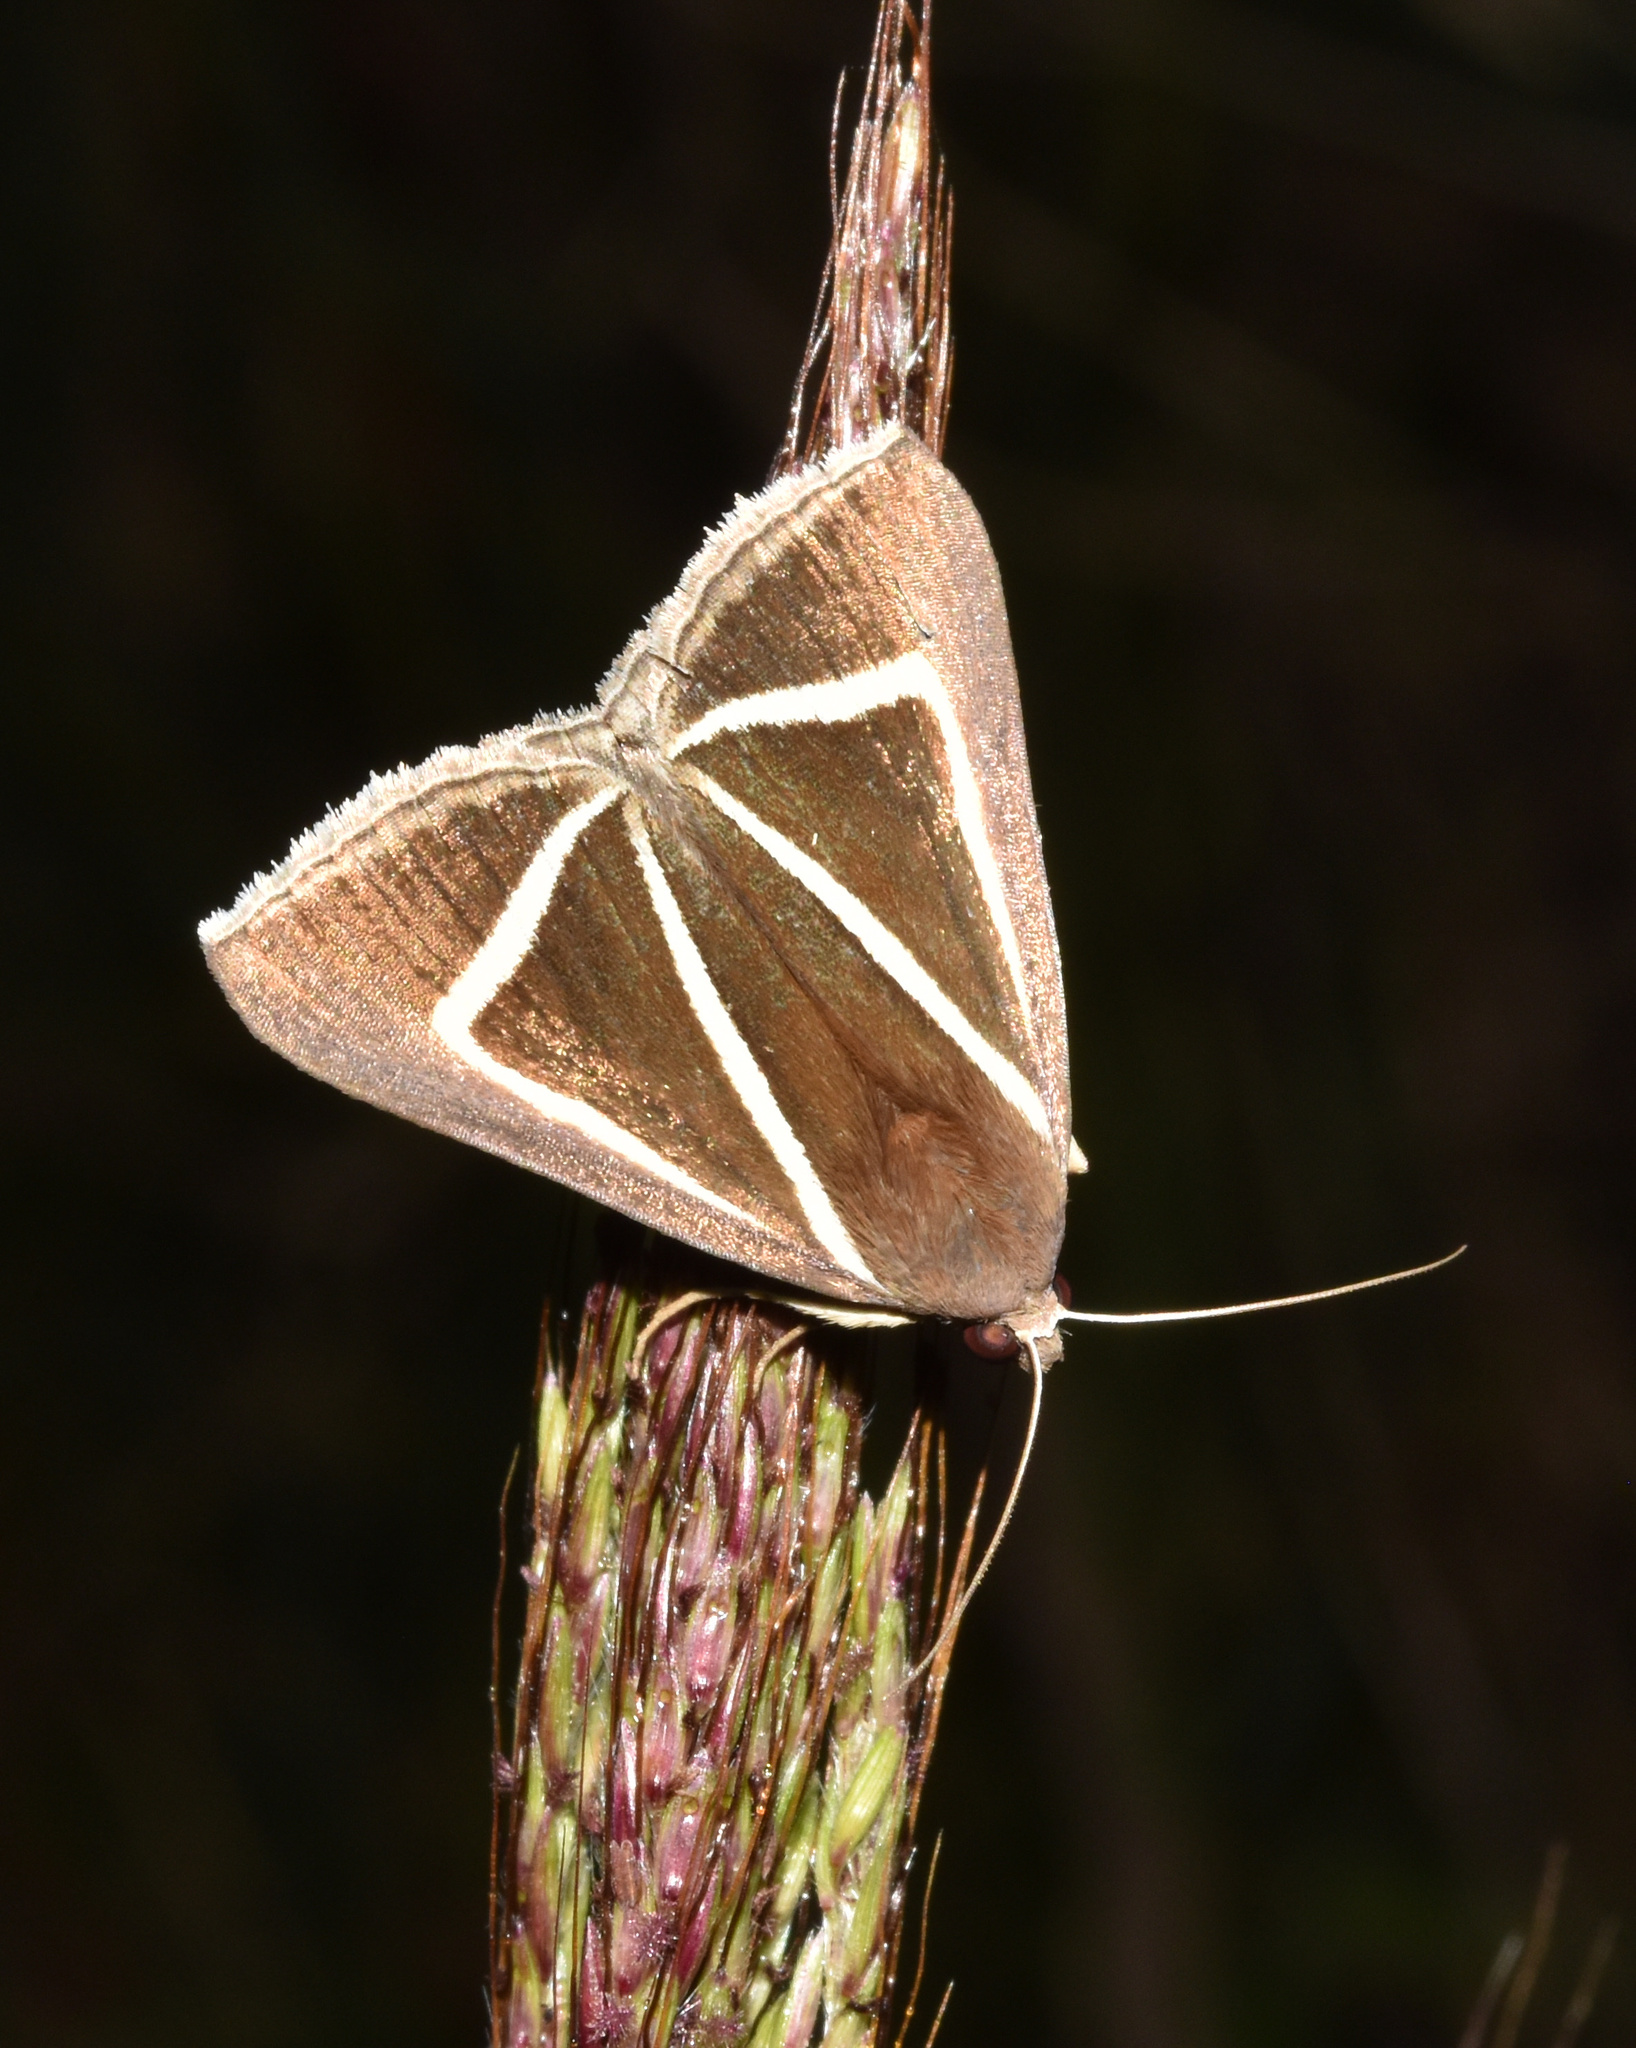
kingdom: Animalia
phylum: Arthropoda
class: Insecta
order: Lepidoptera
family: Erebidae
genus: Chalciope
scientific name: Chalciope delta
